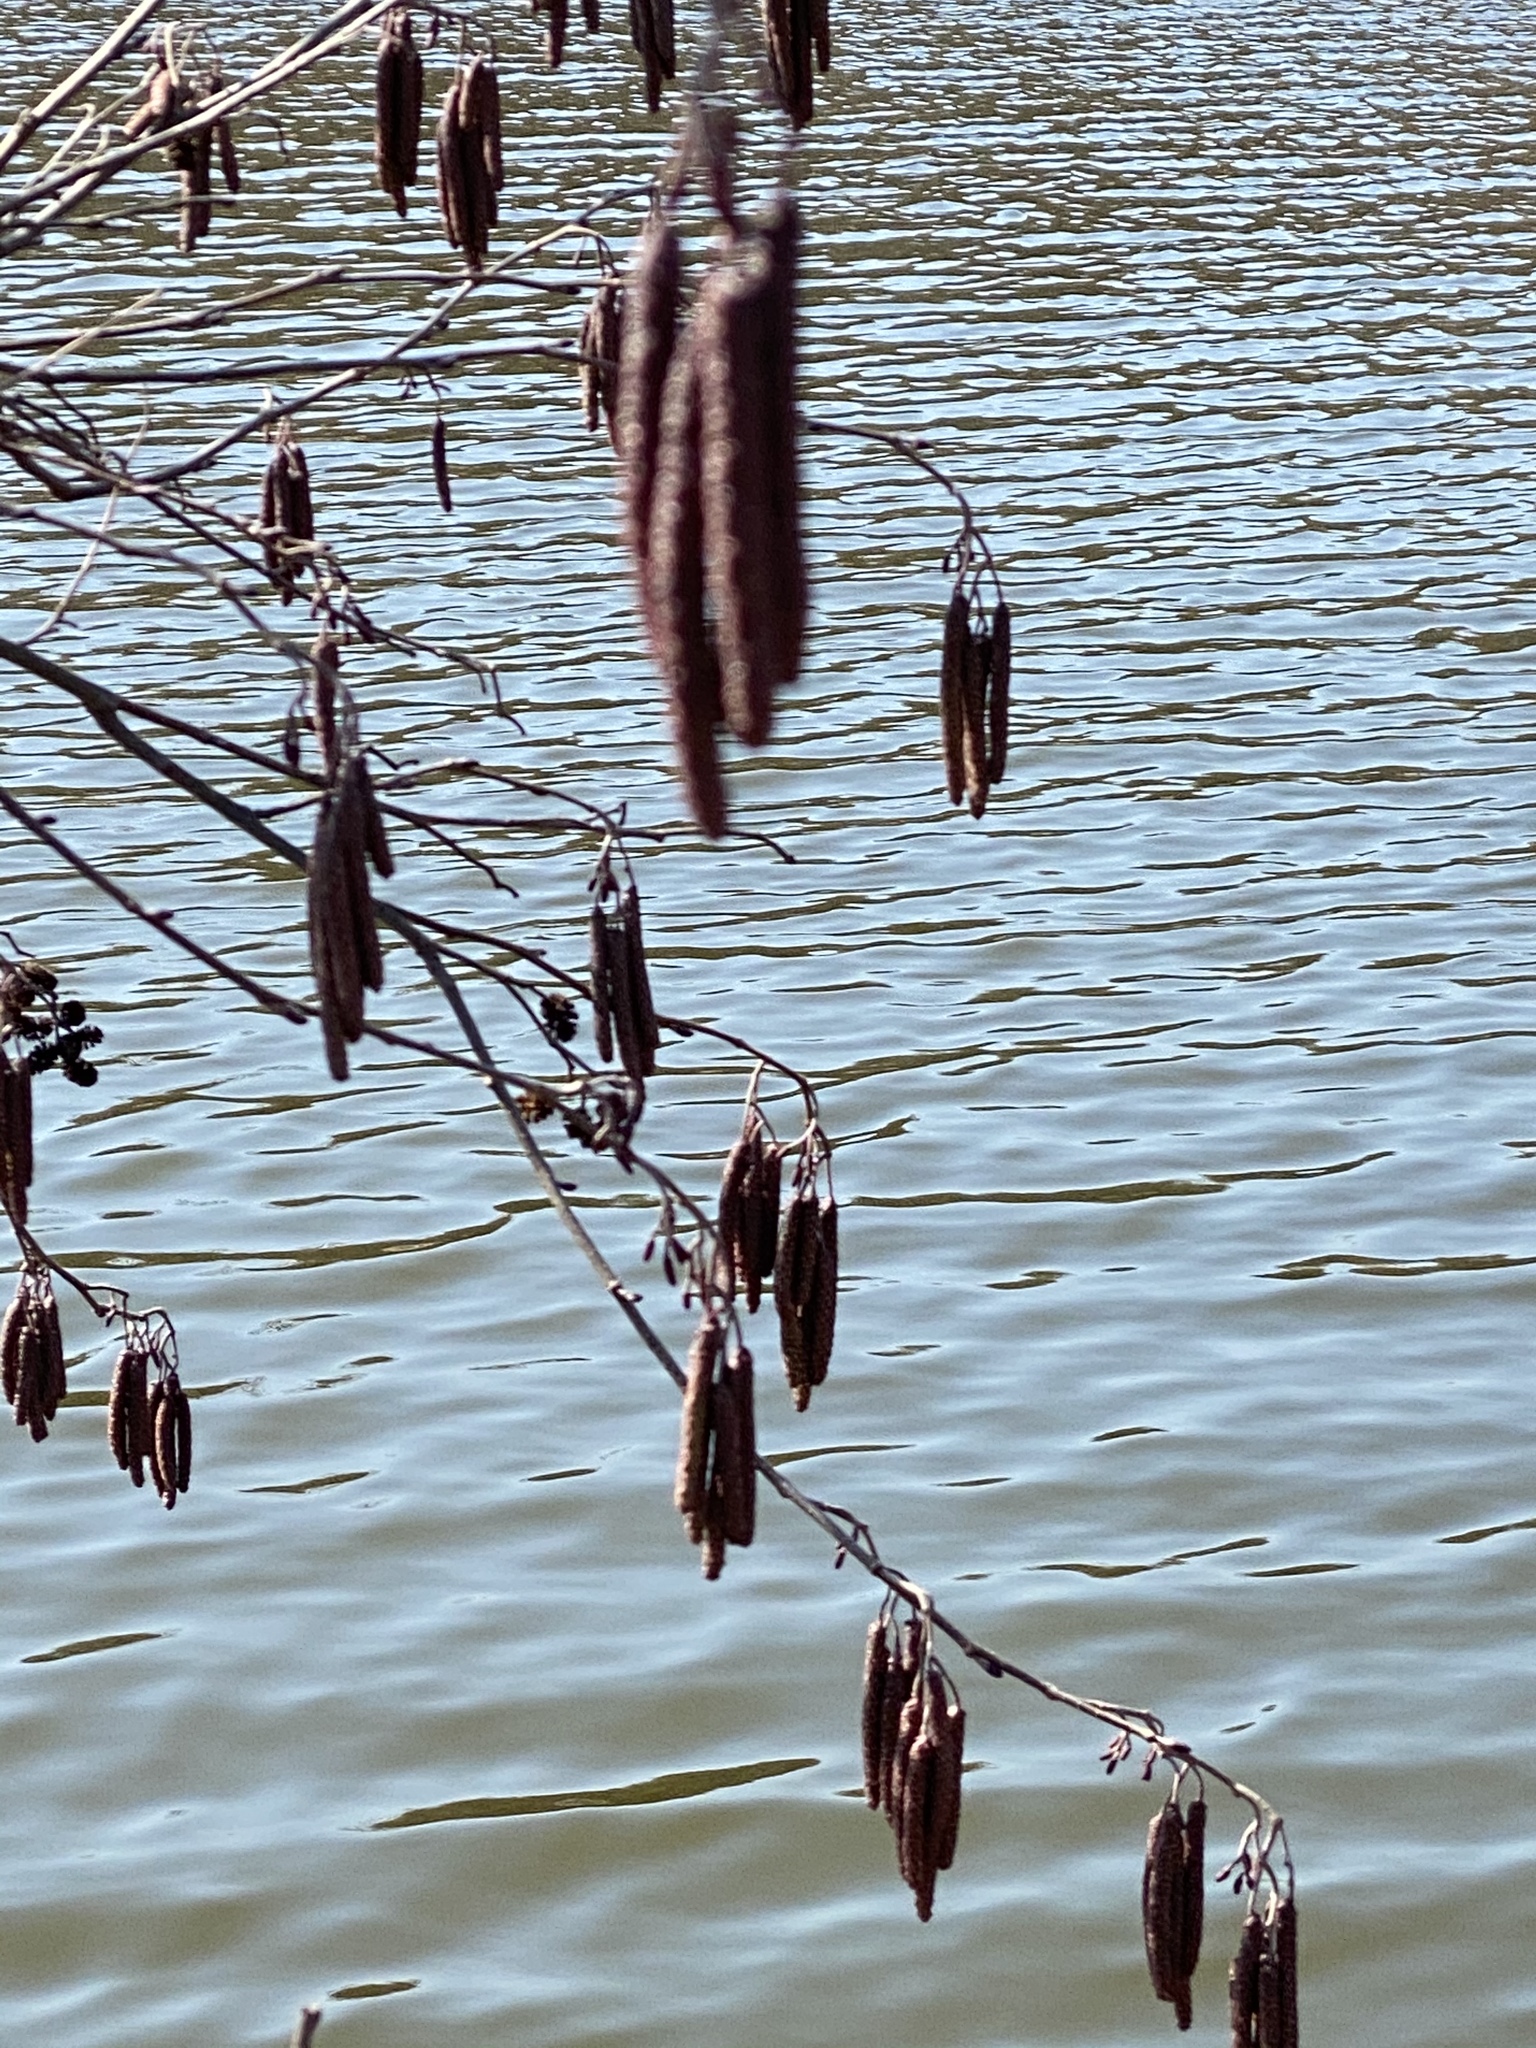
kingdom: Plantae
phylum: Tracheophyta
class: Magnoliopsida
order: Fagales
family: Betulaceae
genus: Alnus
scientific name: Alnus incana
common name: Grey alder
